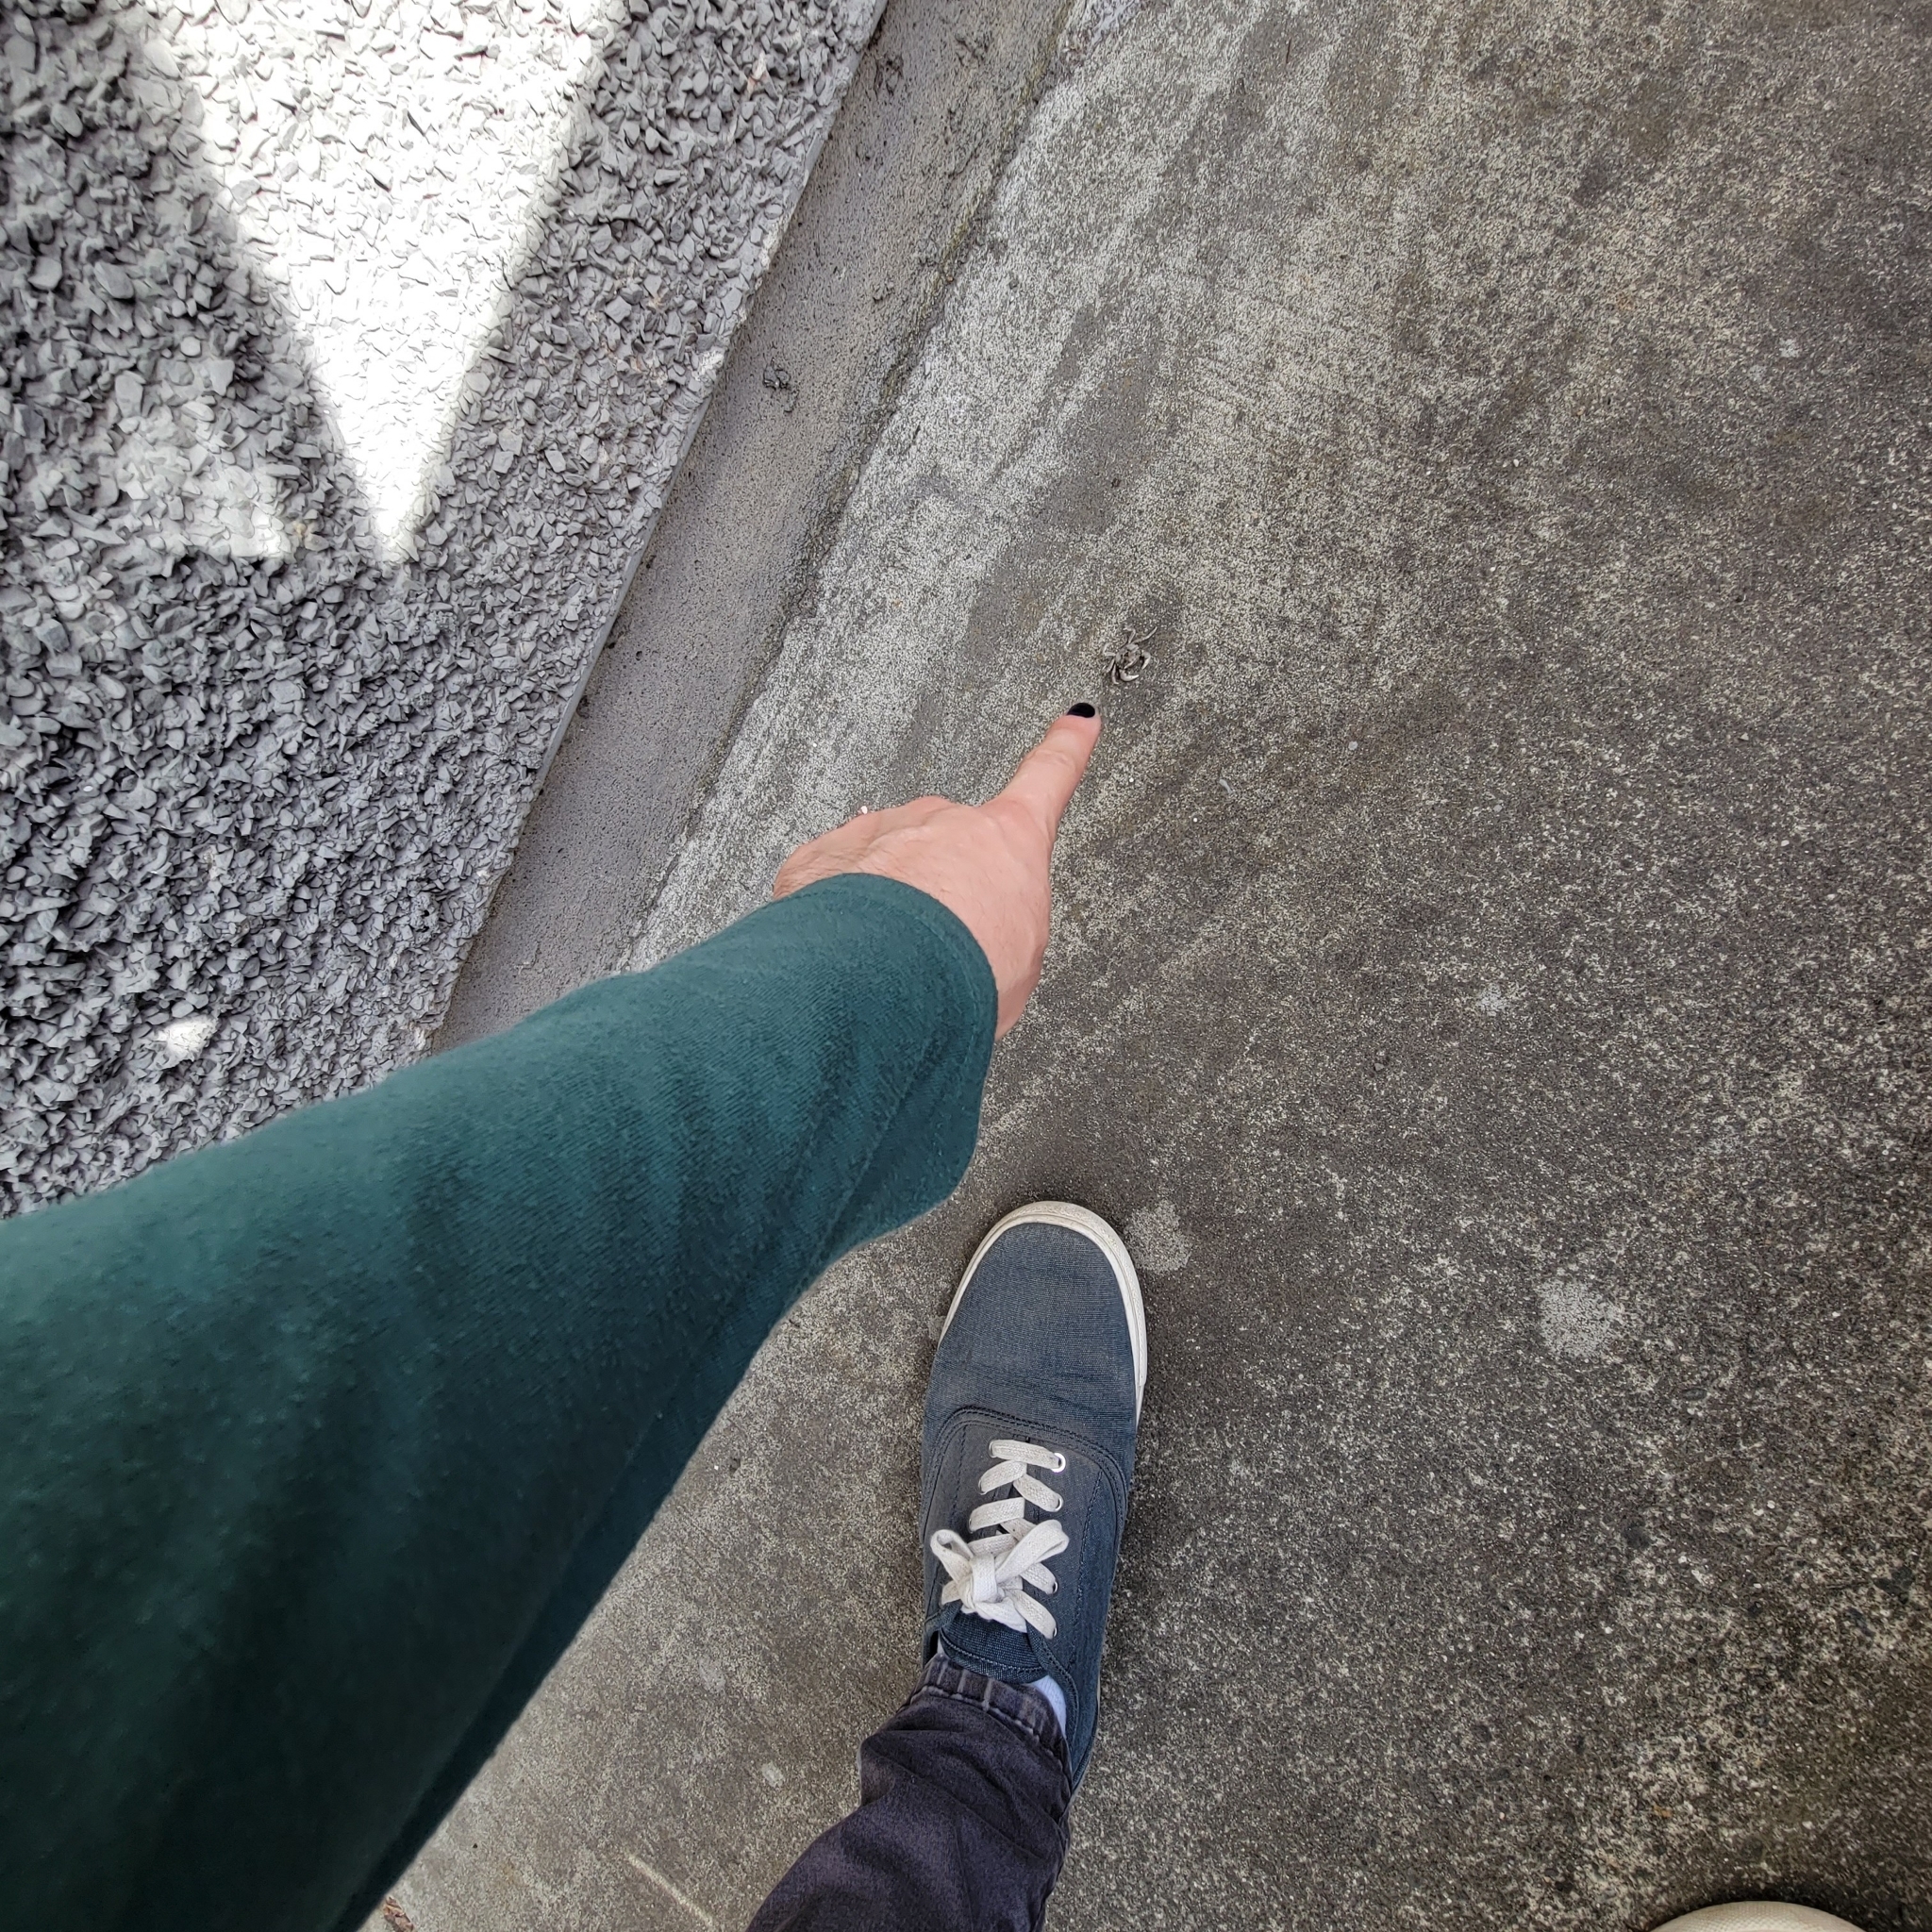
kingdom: Animalia
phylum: Arthropoda
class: Malacostraca
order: Decapoda
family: Varunidae
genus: Hemigrapsus
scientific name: Hemigrapsus oregonensis
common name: Yellow shore crab
